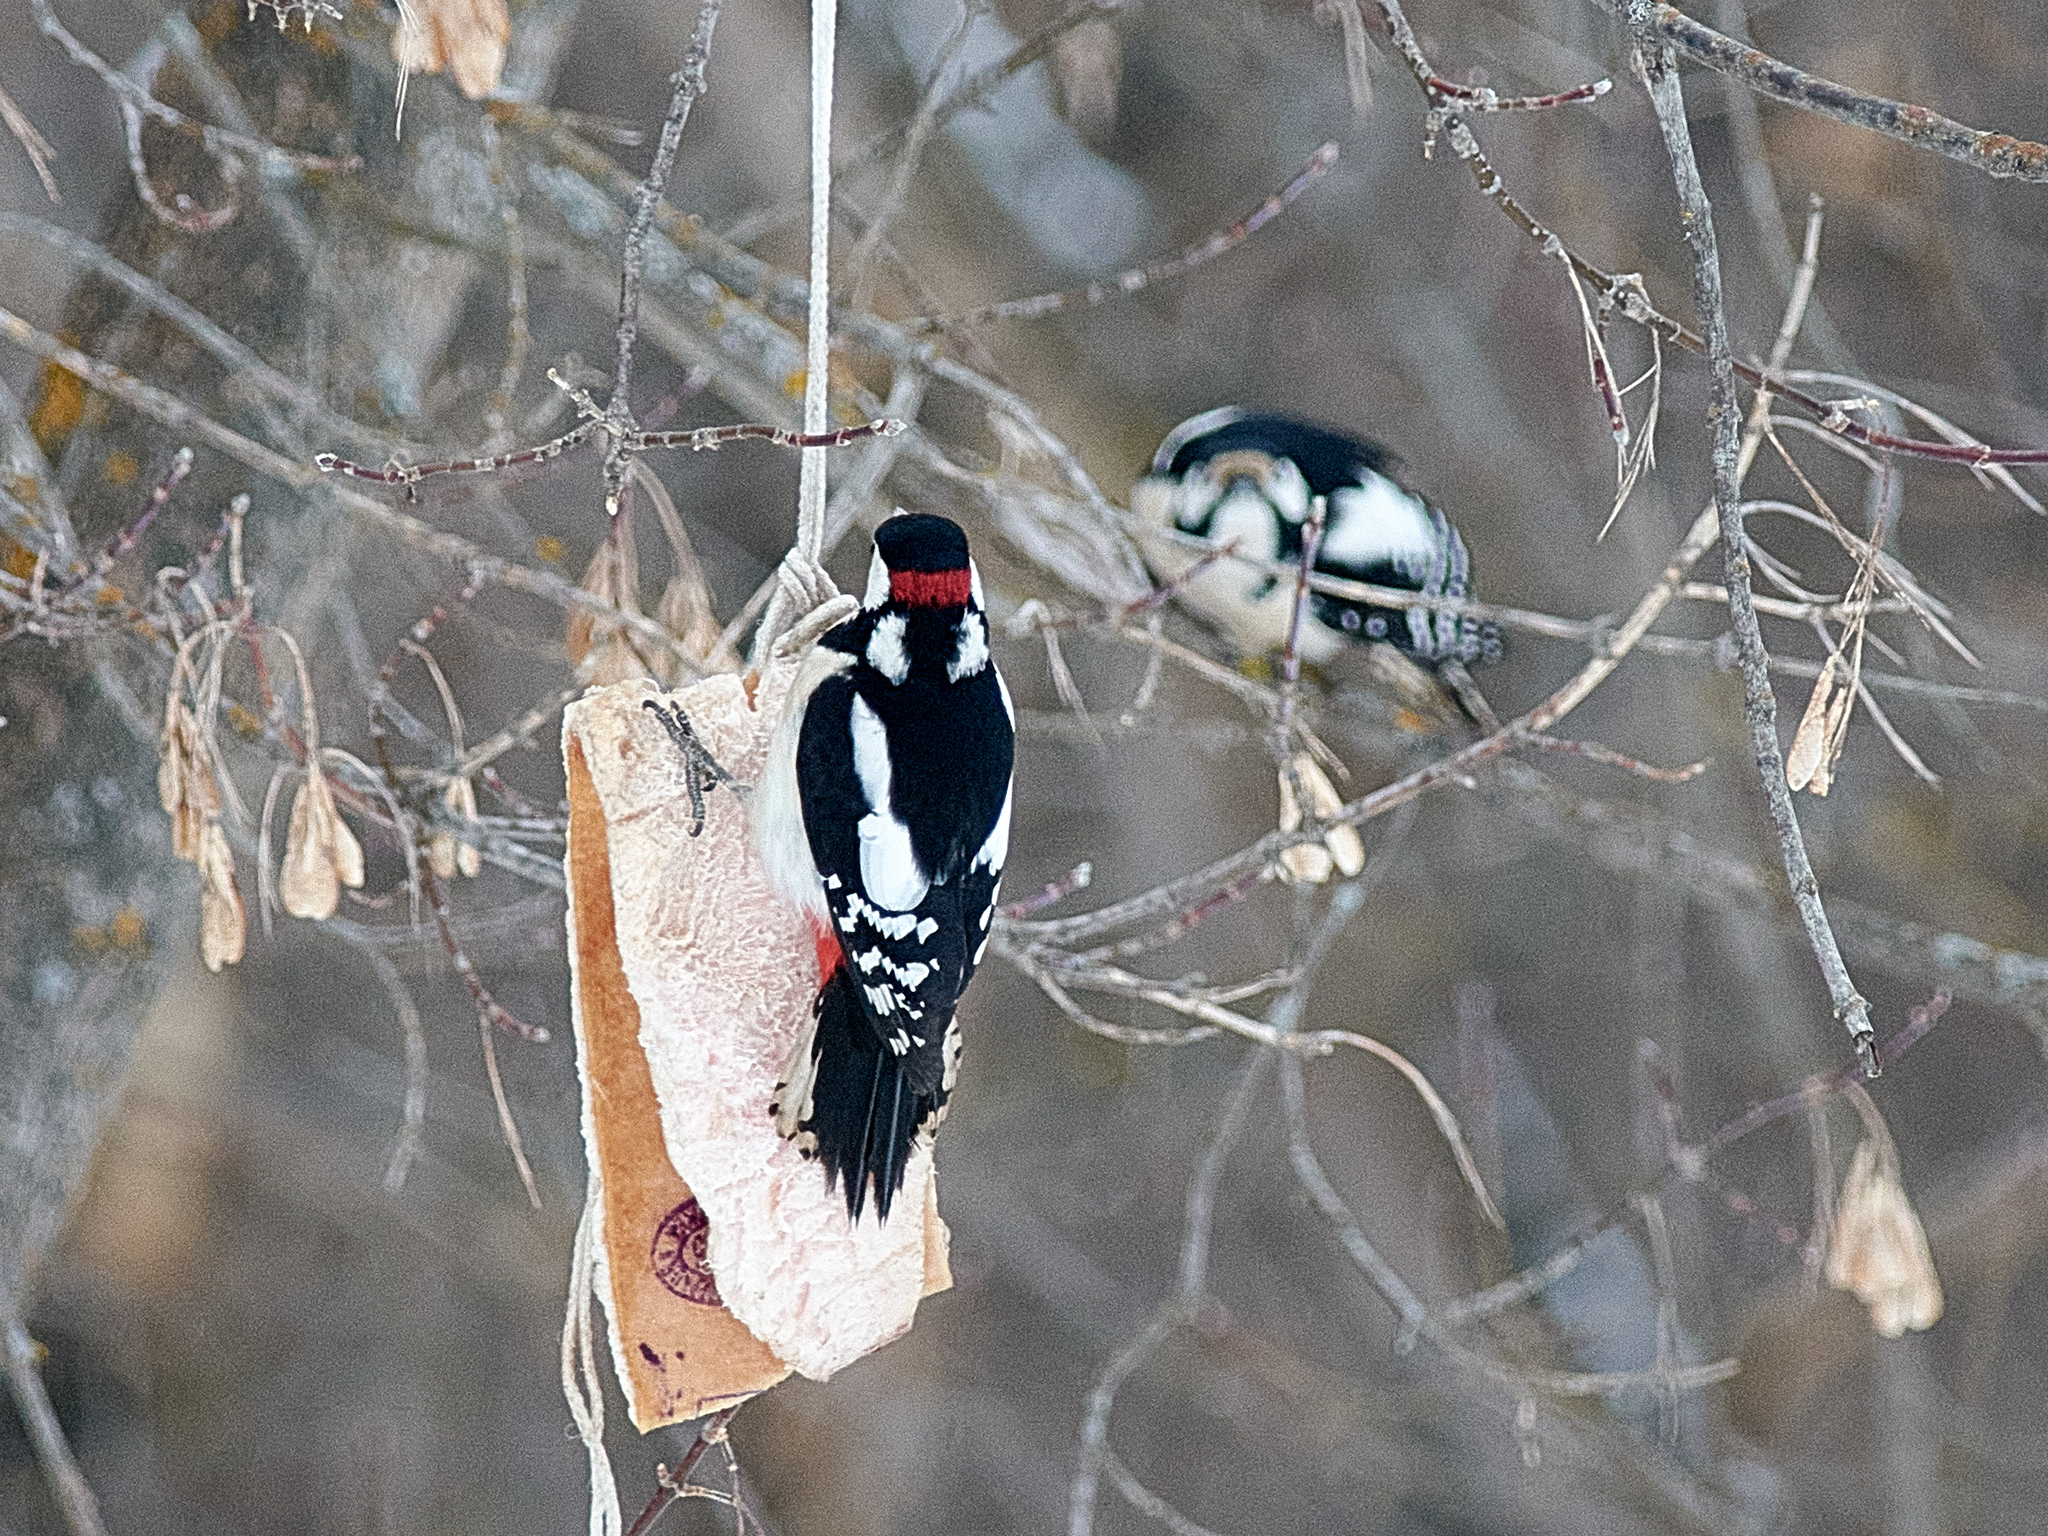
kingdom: Animalia
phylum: Chordata
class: Aves
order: Piciformes
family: Picidae
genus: Dendrocopos
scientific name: Dendrocopos major
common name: Great spotted woodpecker
